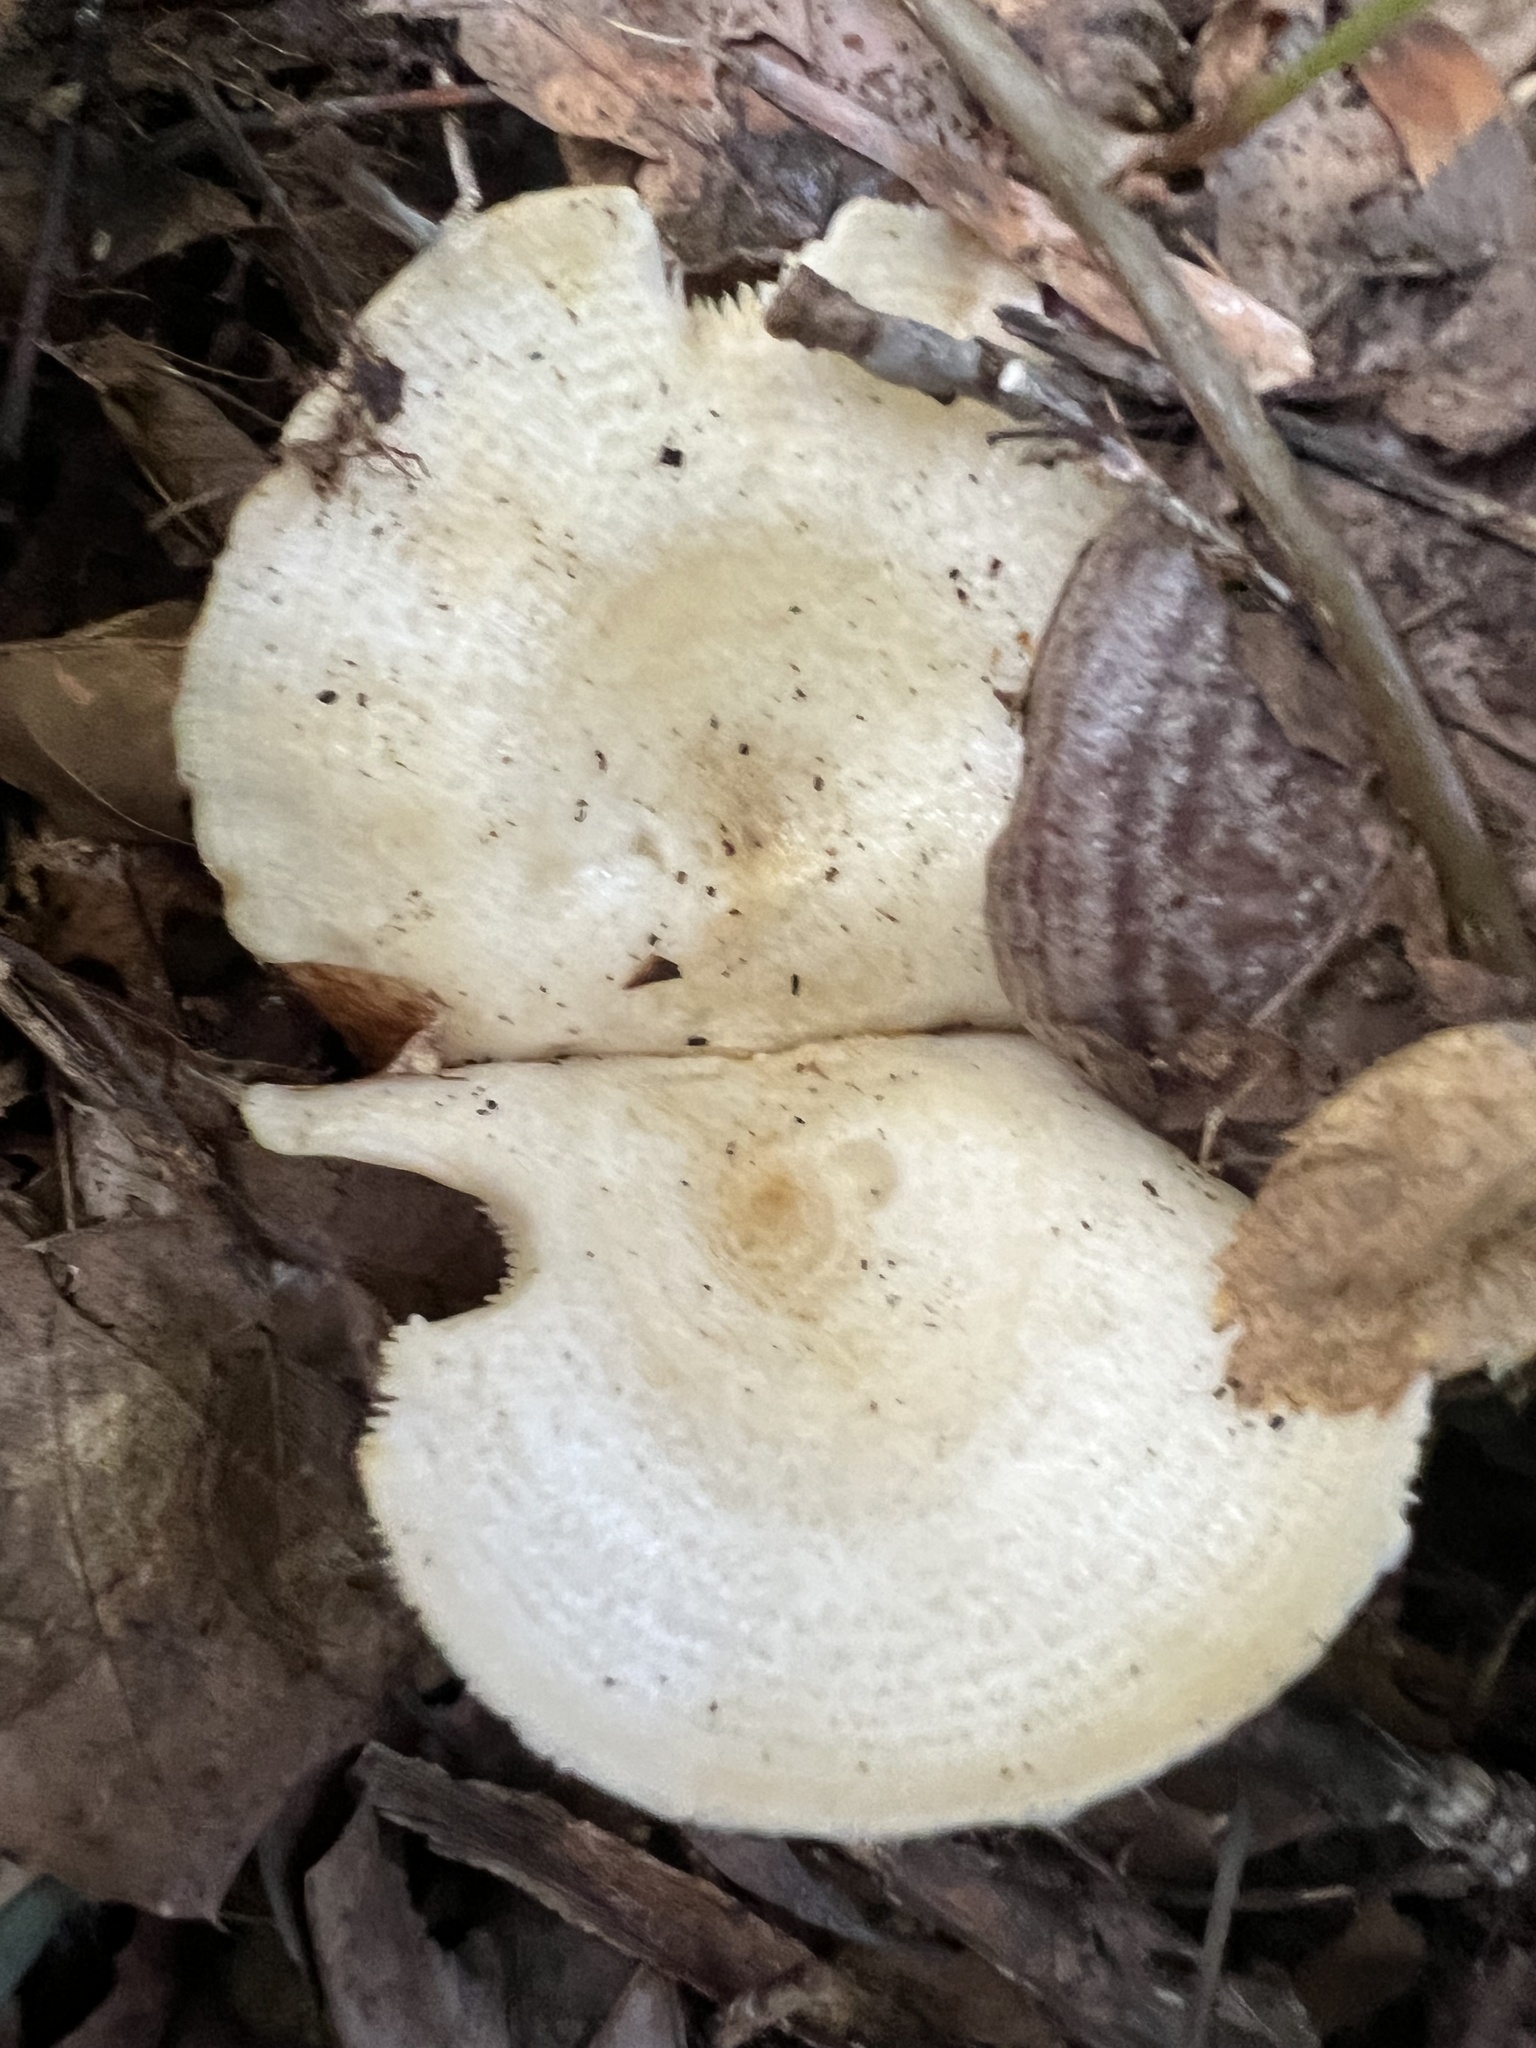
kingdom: Fungi
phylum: Basidiomycota
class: Agaricomycetes
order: Russulales
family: Russulaceae
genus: Lactifluus
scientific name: Lactifluus piperatus
